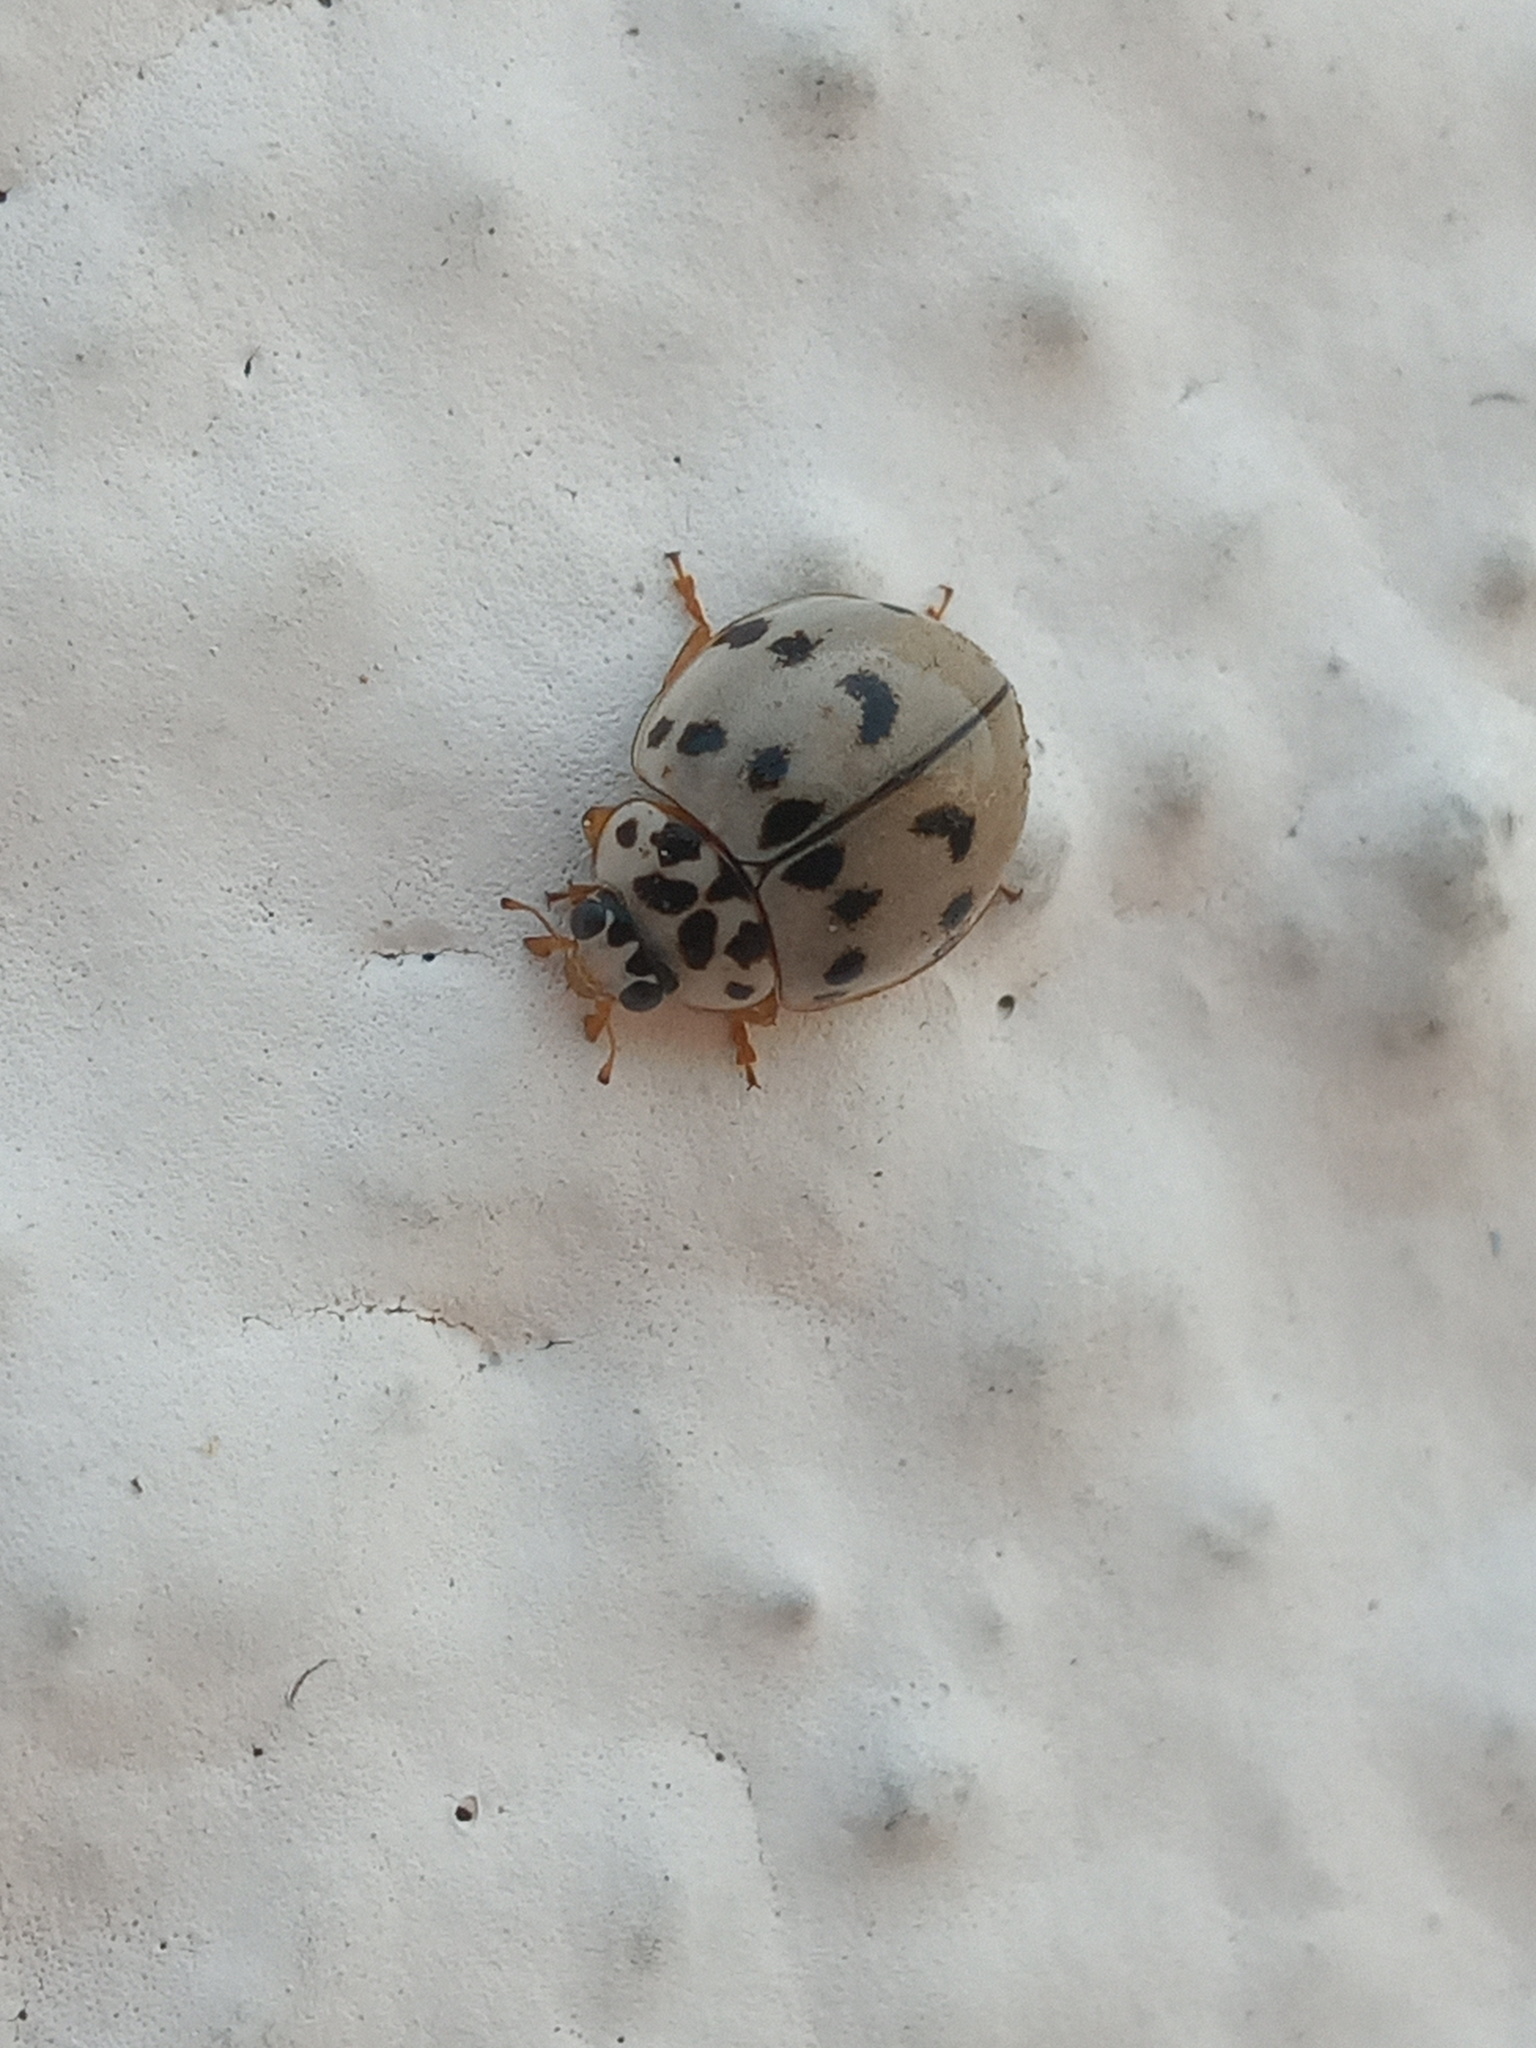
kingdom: Animalia
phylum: Arthropoda
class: Insecta
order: Coleoptera
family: Coccinellidae
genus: Olla
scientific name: Olla v-nigrum
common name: Ashy gray lady beetle
